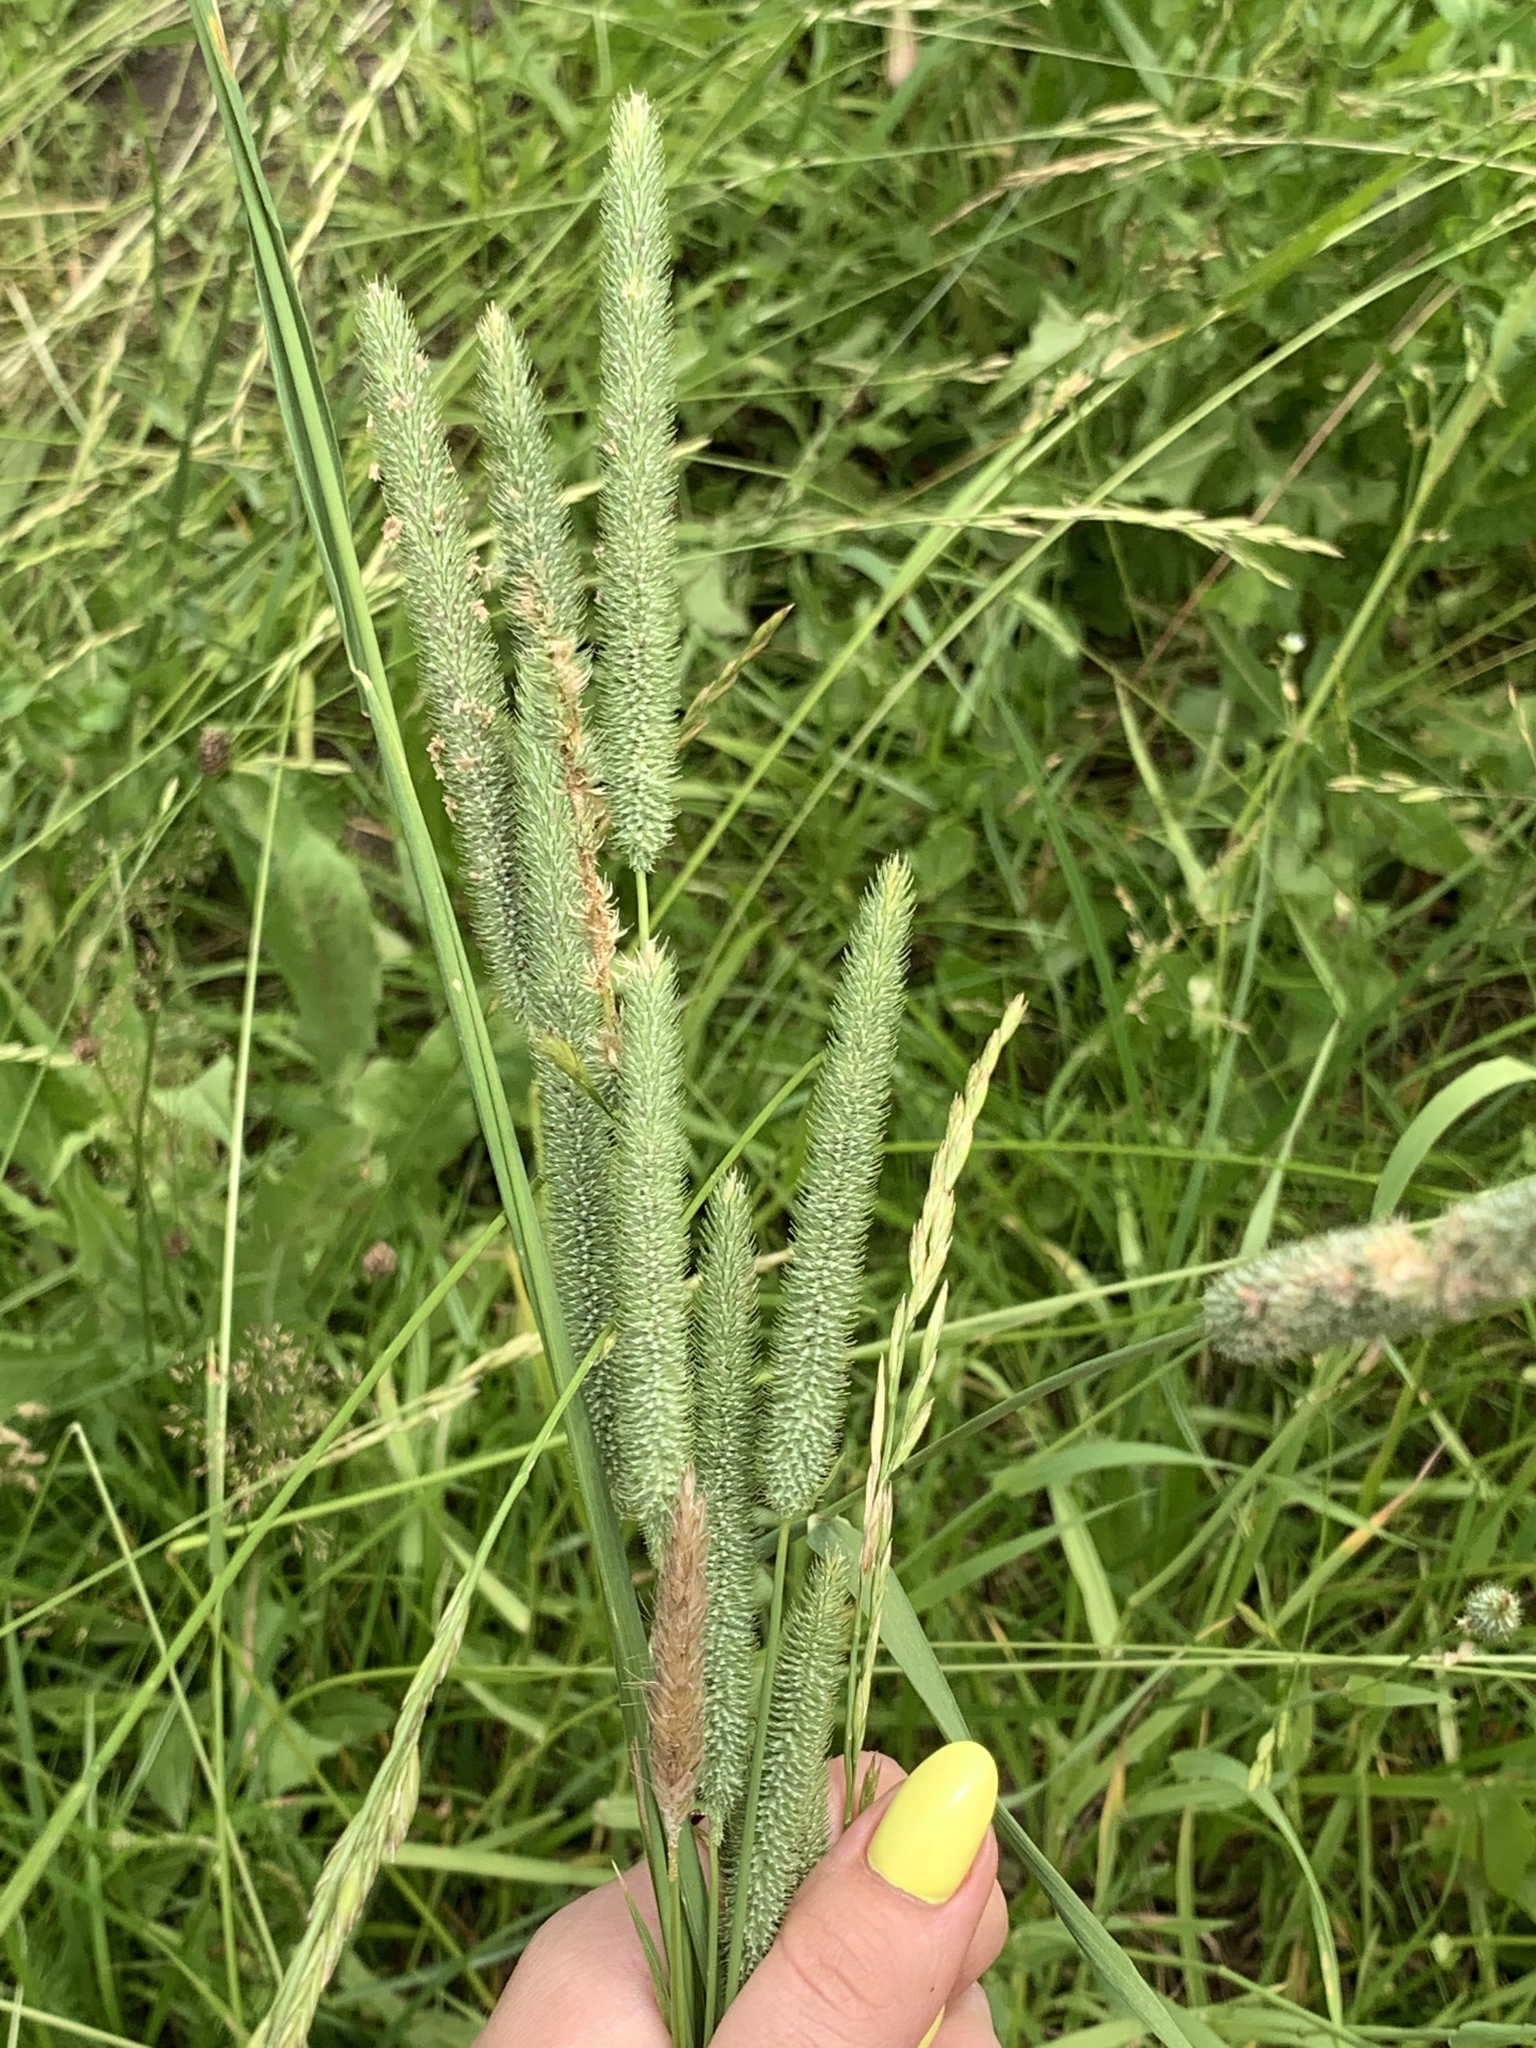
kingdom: Plantae
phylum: Tracheophyta
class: Liliopsida
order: Poales
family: Poaceae
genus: Phleum
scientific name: Phleum pratense
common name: Timothy grass
